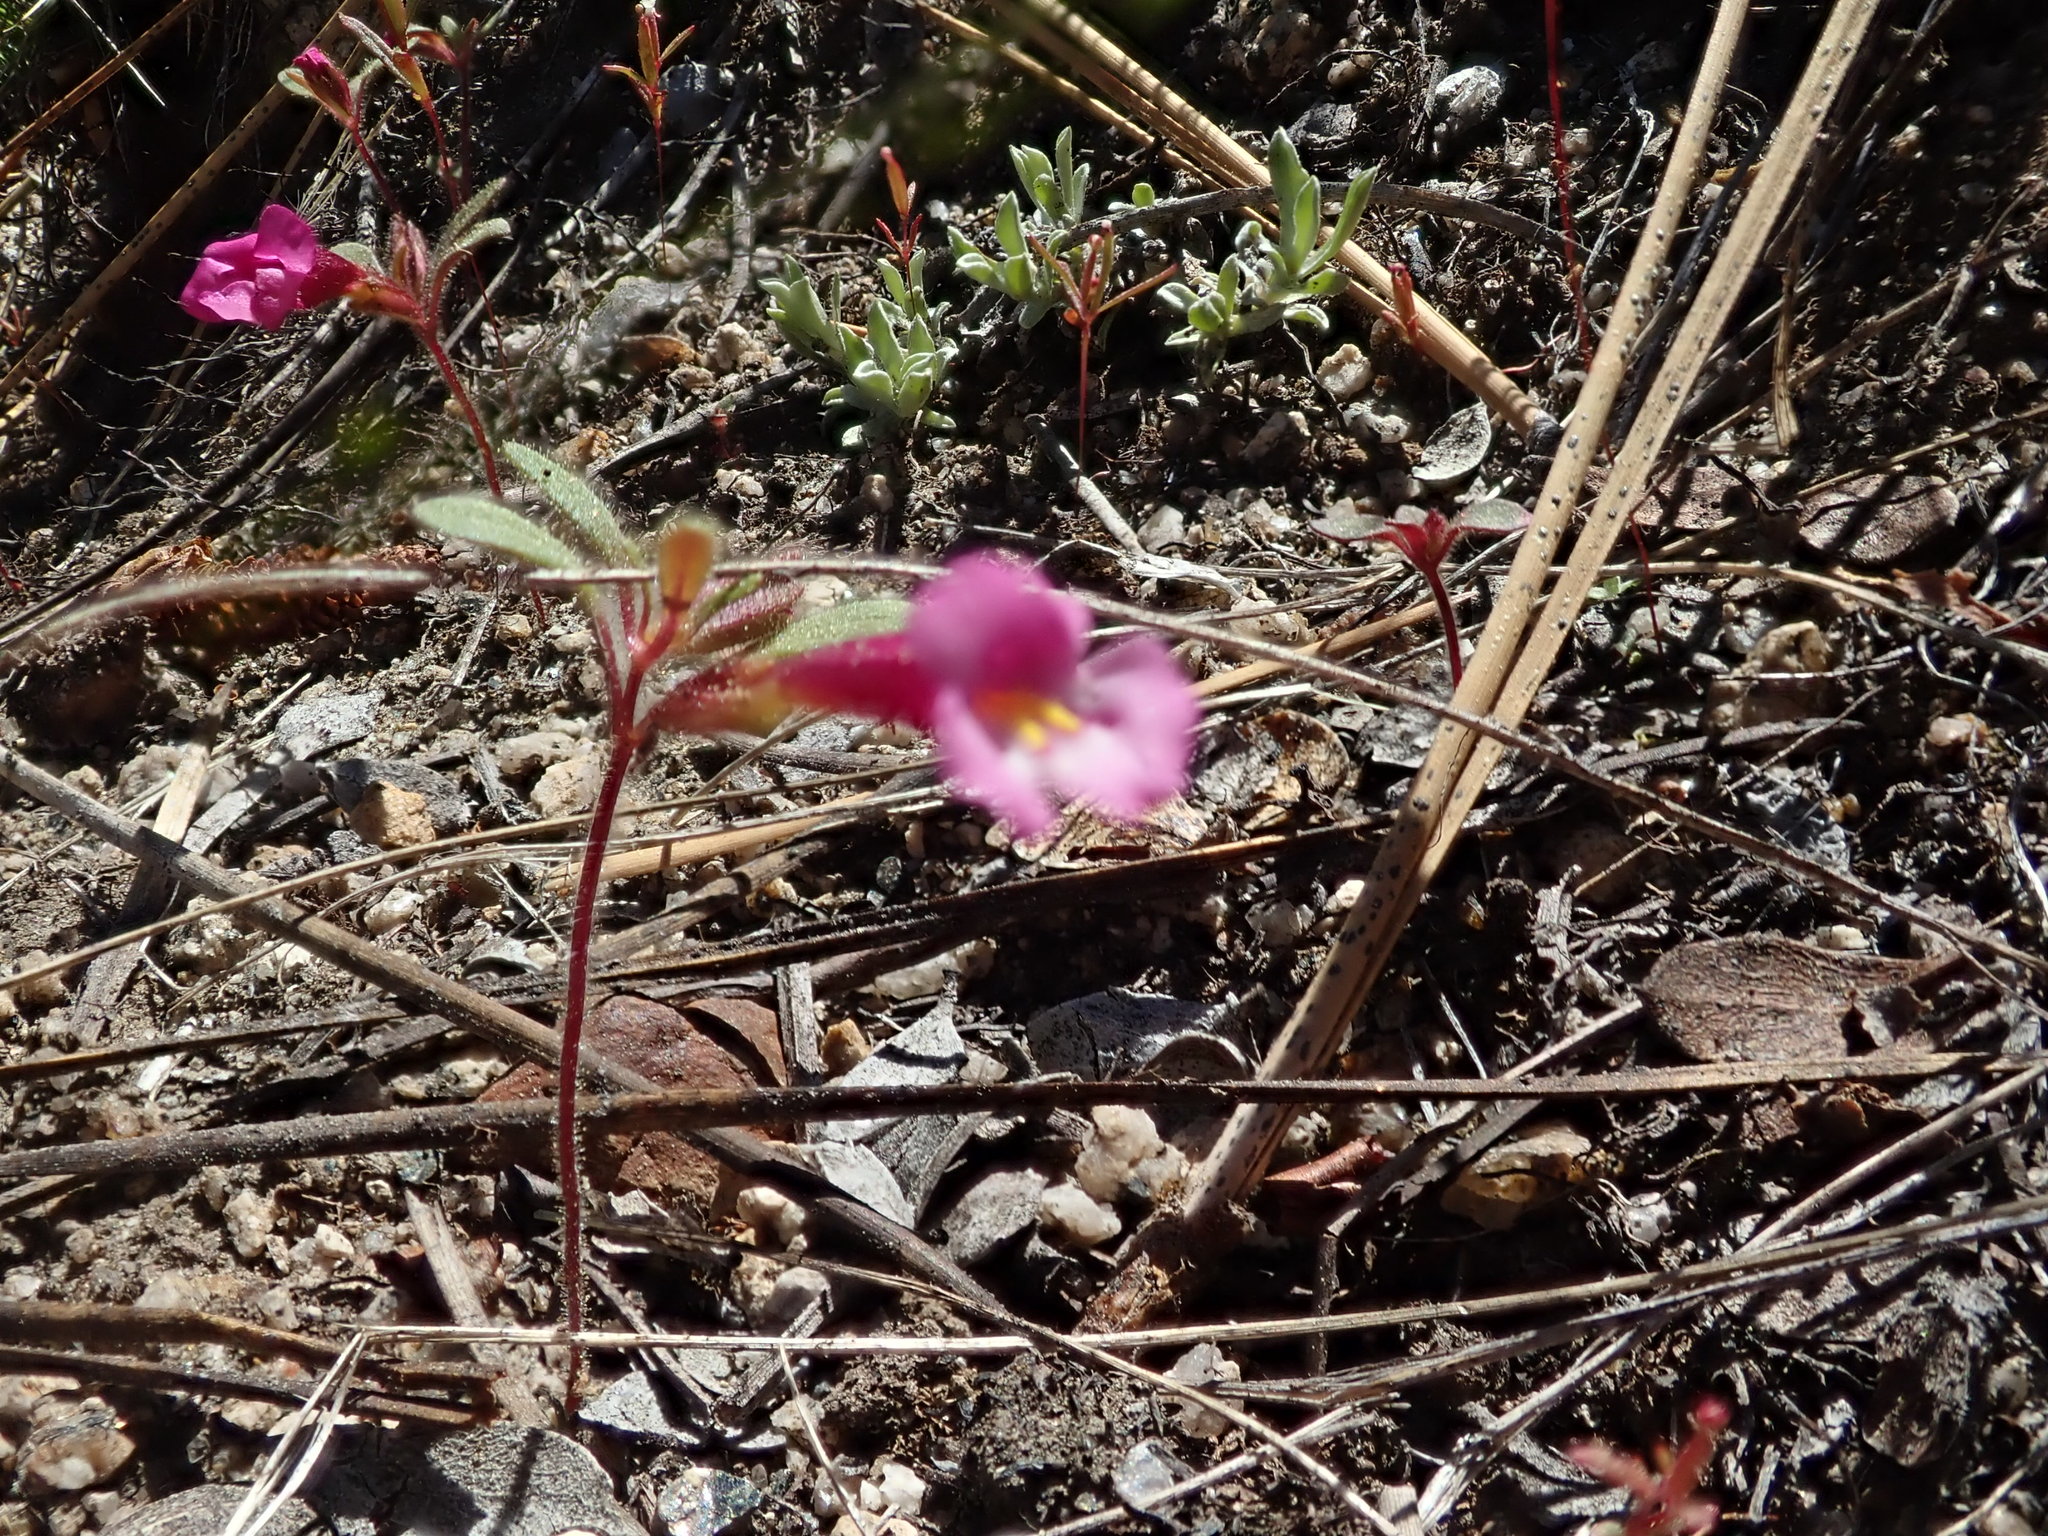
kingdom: Plantae
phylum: Tracheophyta
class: Magnoliopsida
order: Lamiales
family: Phrymaceae
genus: Diplacus
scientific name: Diplacus torreyi
